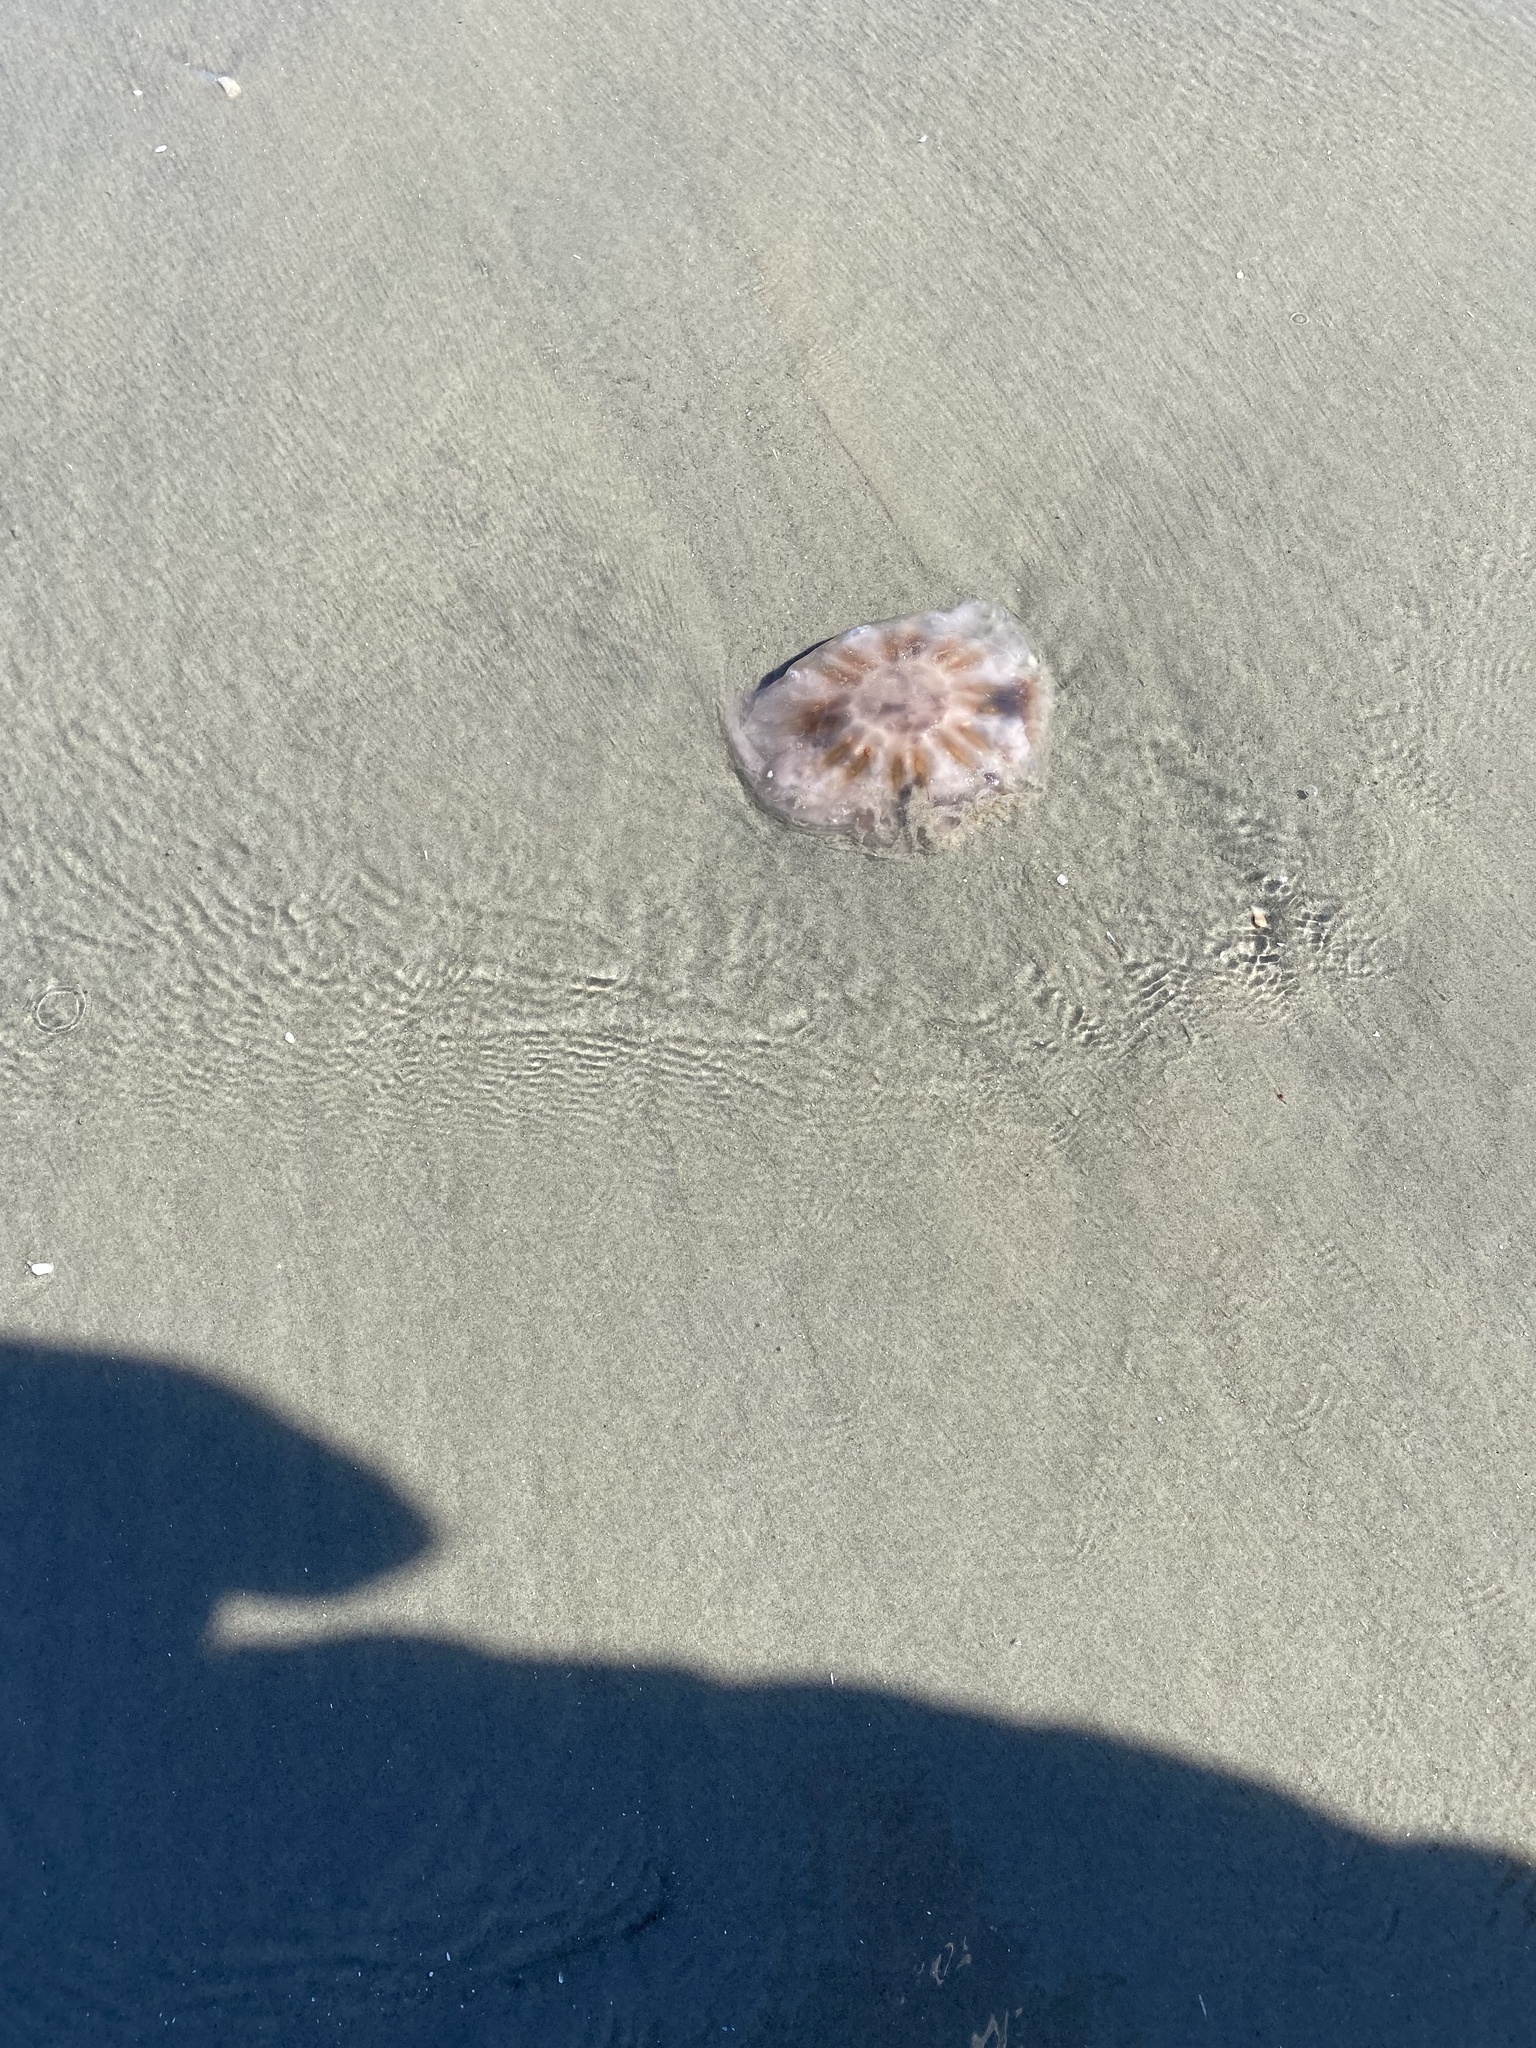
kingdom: Animalia
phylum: Cnidaria
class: Scyphozoa
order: Semaeostomeae
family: Cyaneidae
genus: Cyanea
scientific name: Cyanea versicolor
